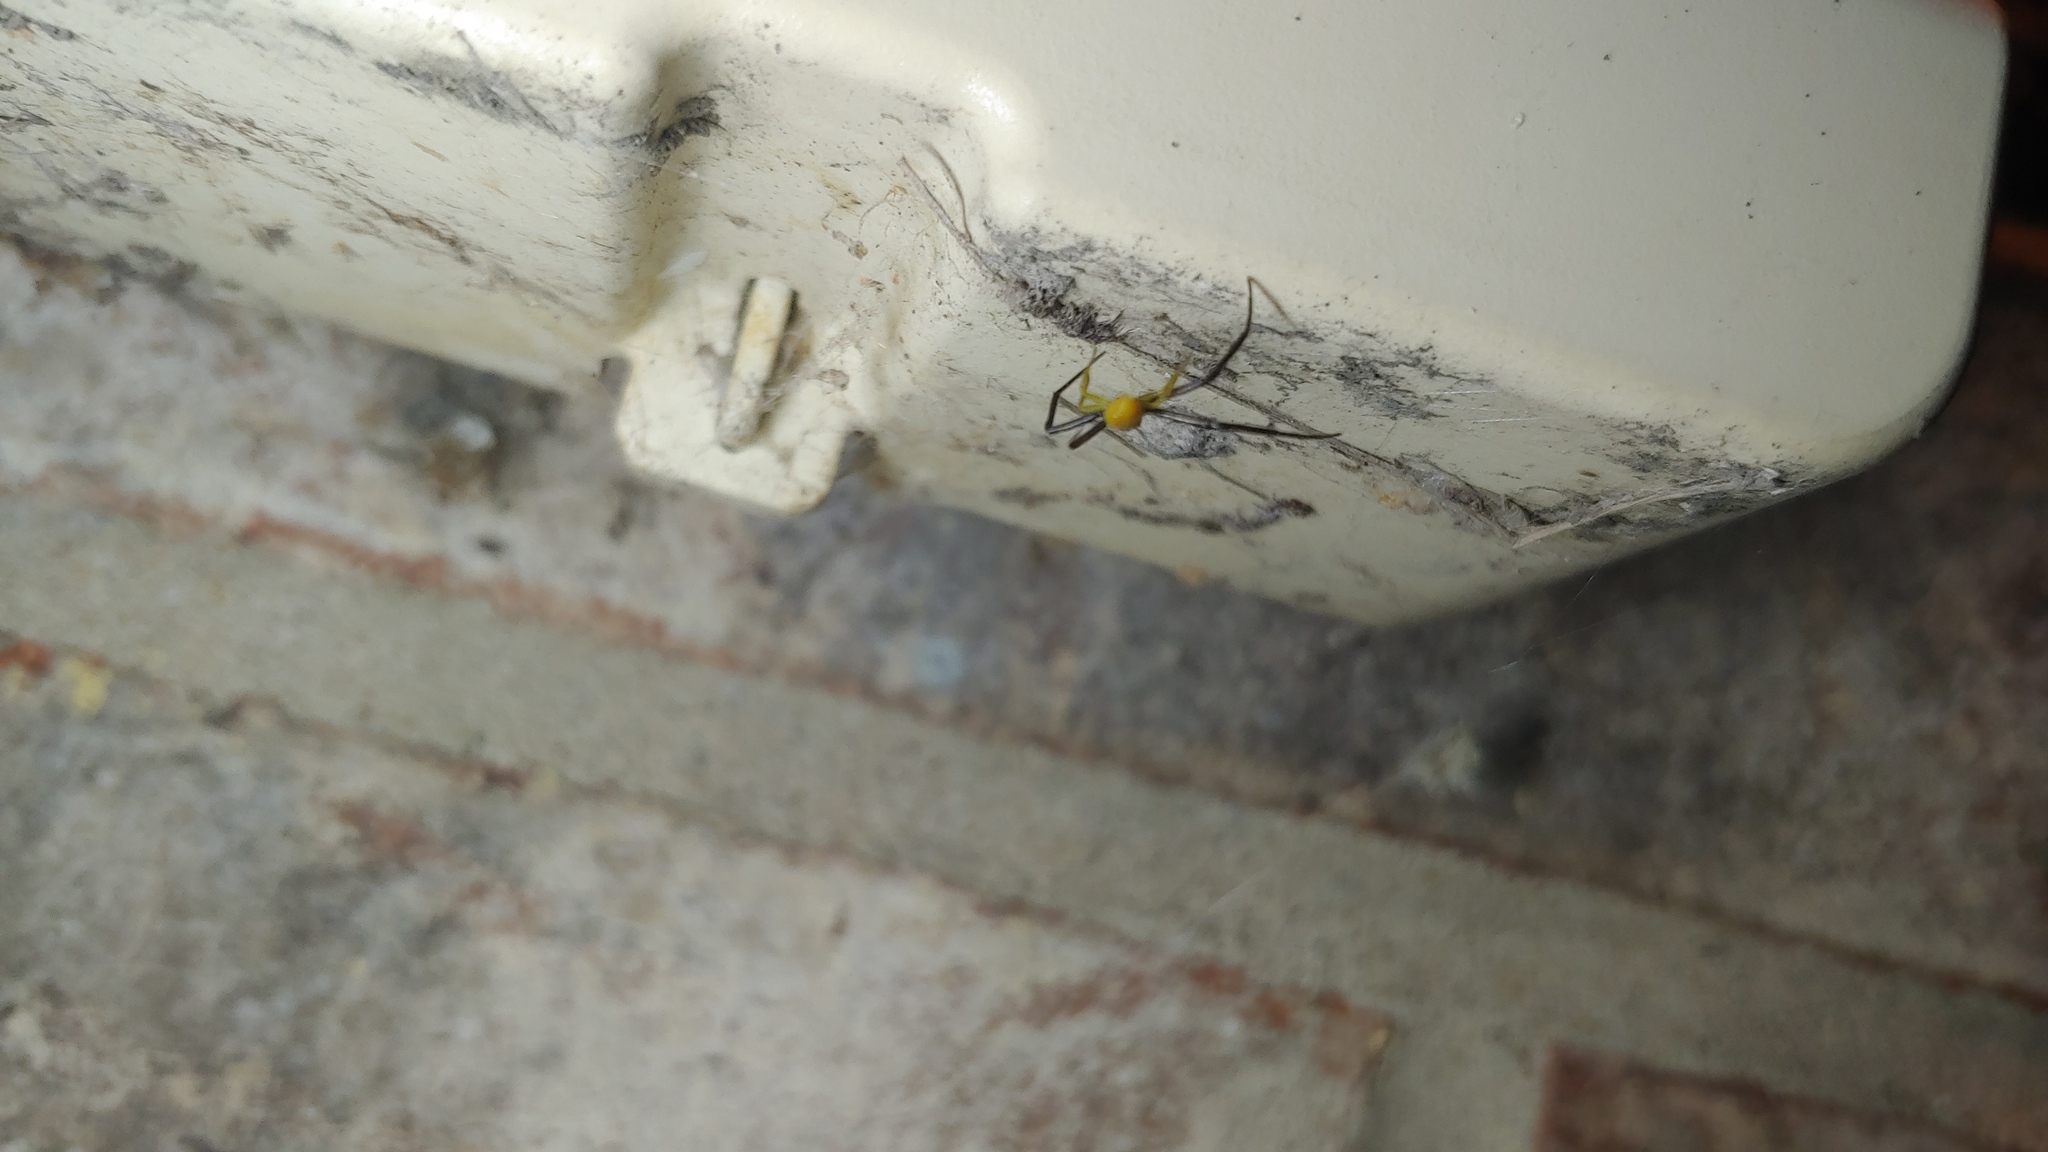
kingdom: Animalia
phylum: Arthropoda
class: Arachnida
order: Araneae
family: Thomisidae
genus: Misumenoides
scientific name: Misumenoides formosipes
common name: White-banded crab spider
